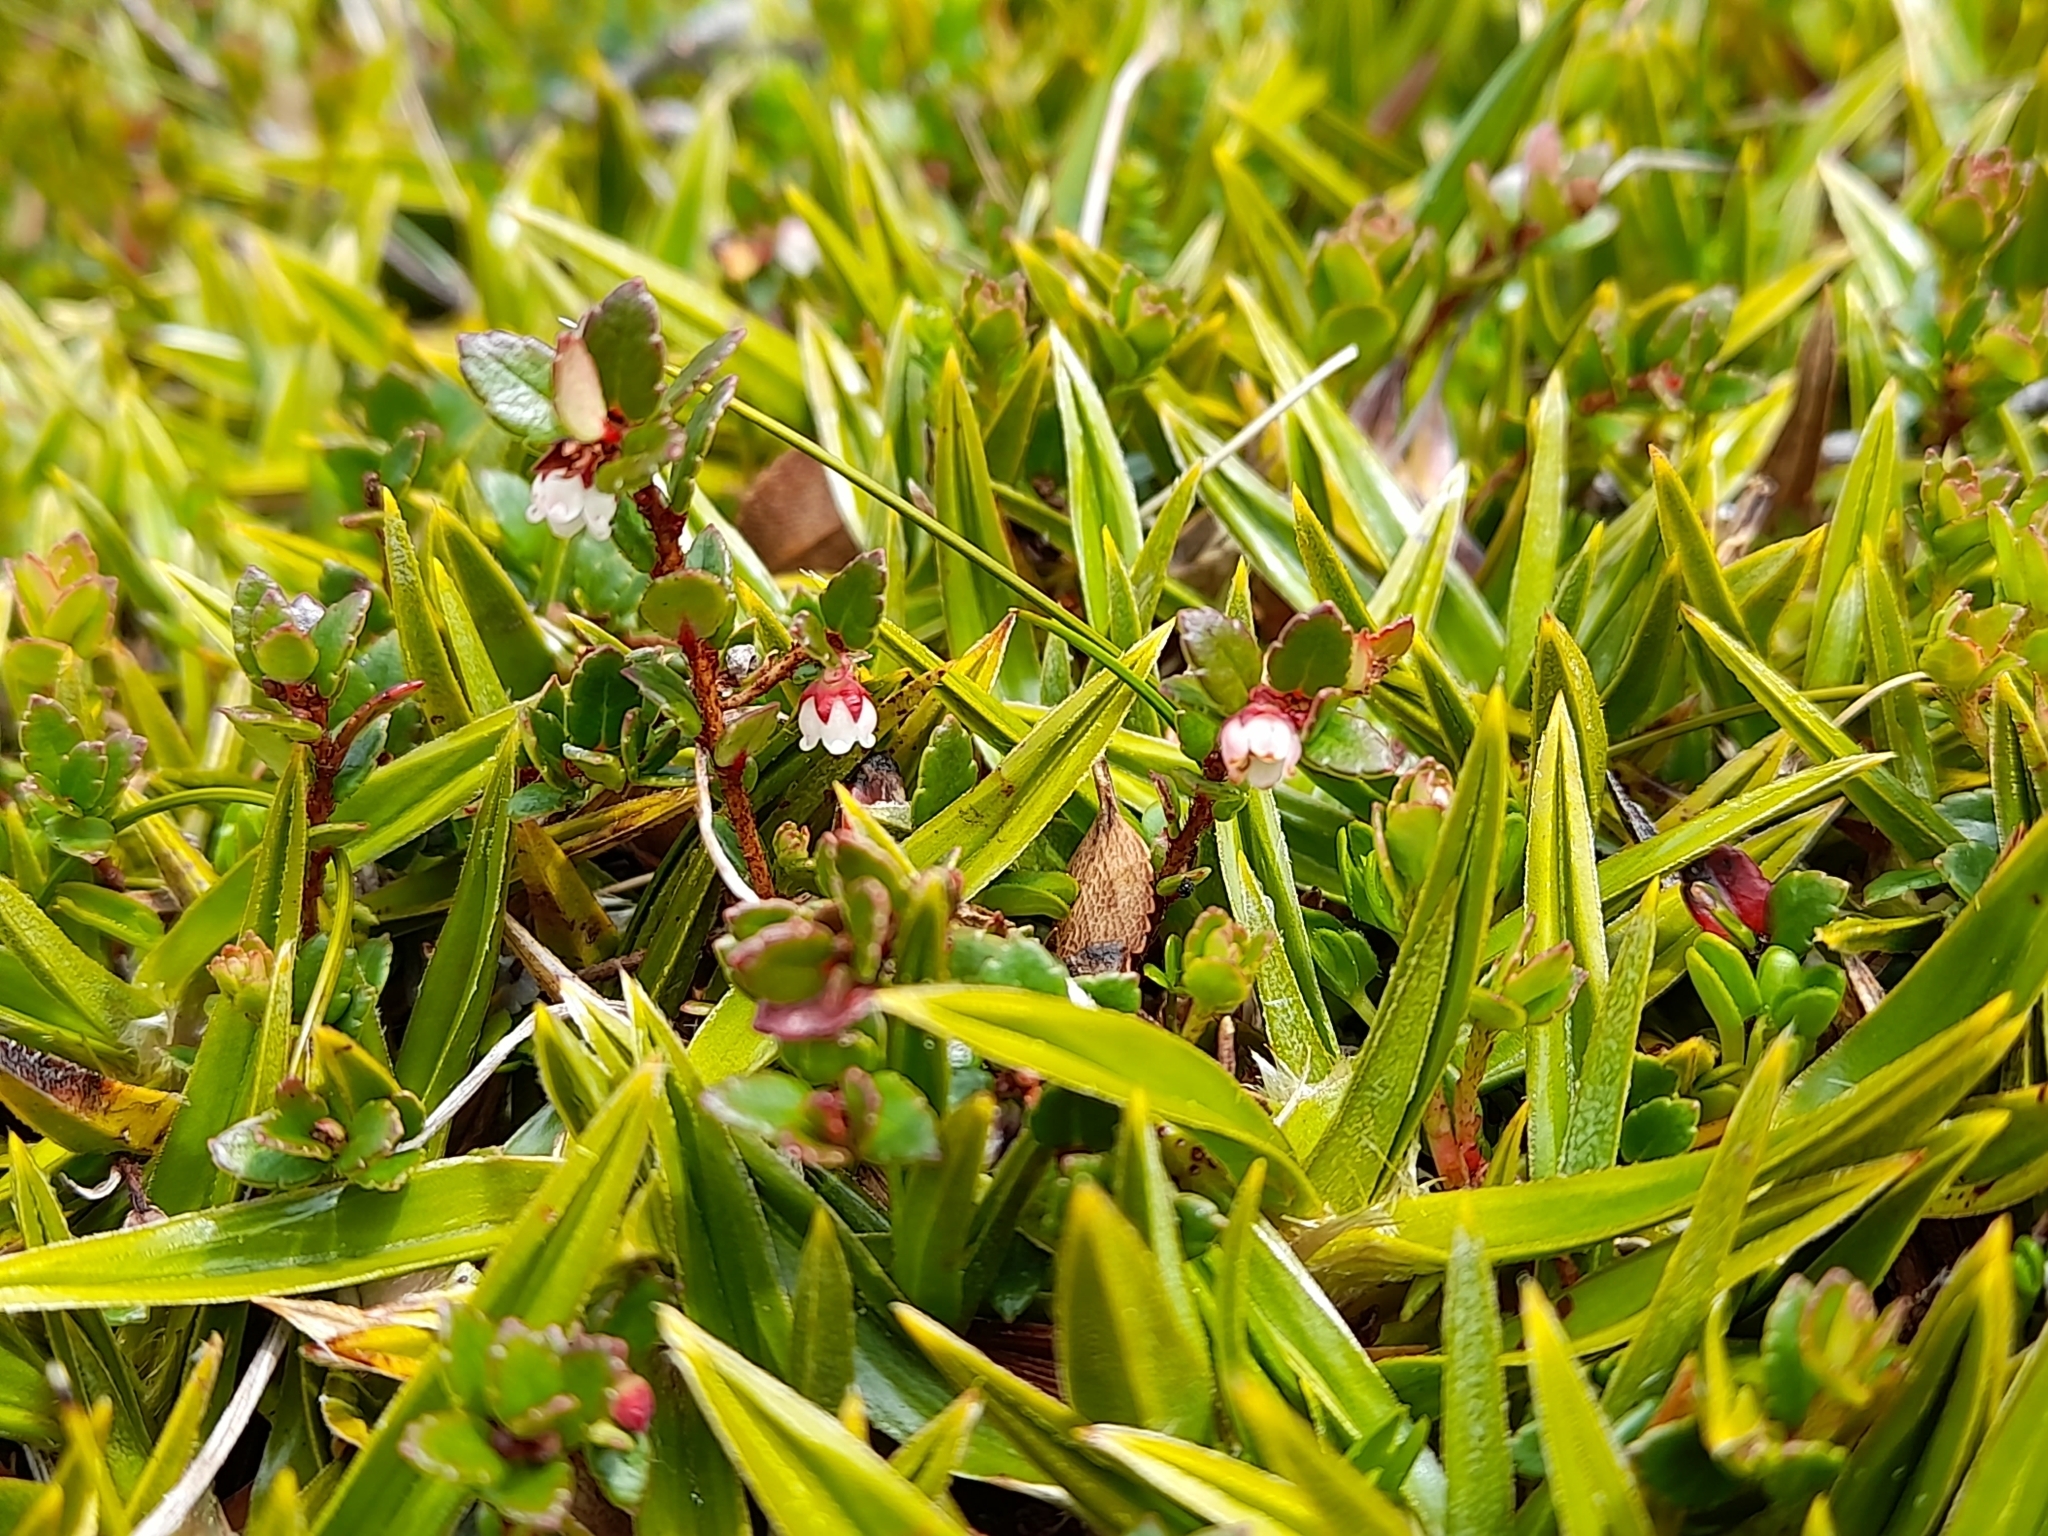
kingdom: Plantae
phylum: Tracheophyta
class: Magnoliopsida
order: Ericales
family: Ericaceae
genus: Gaultheria
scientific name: Gaultheria antarctica
